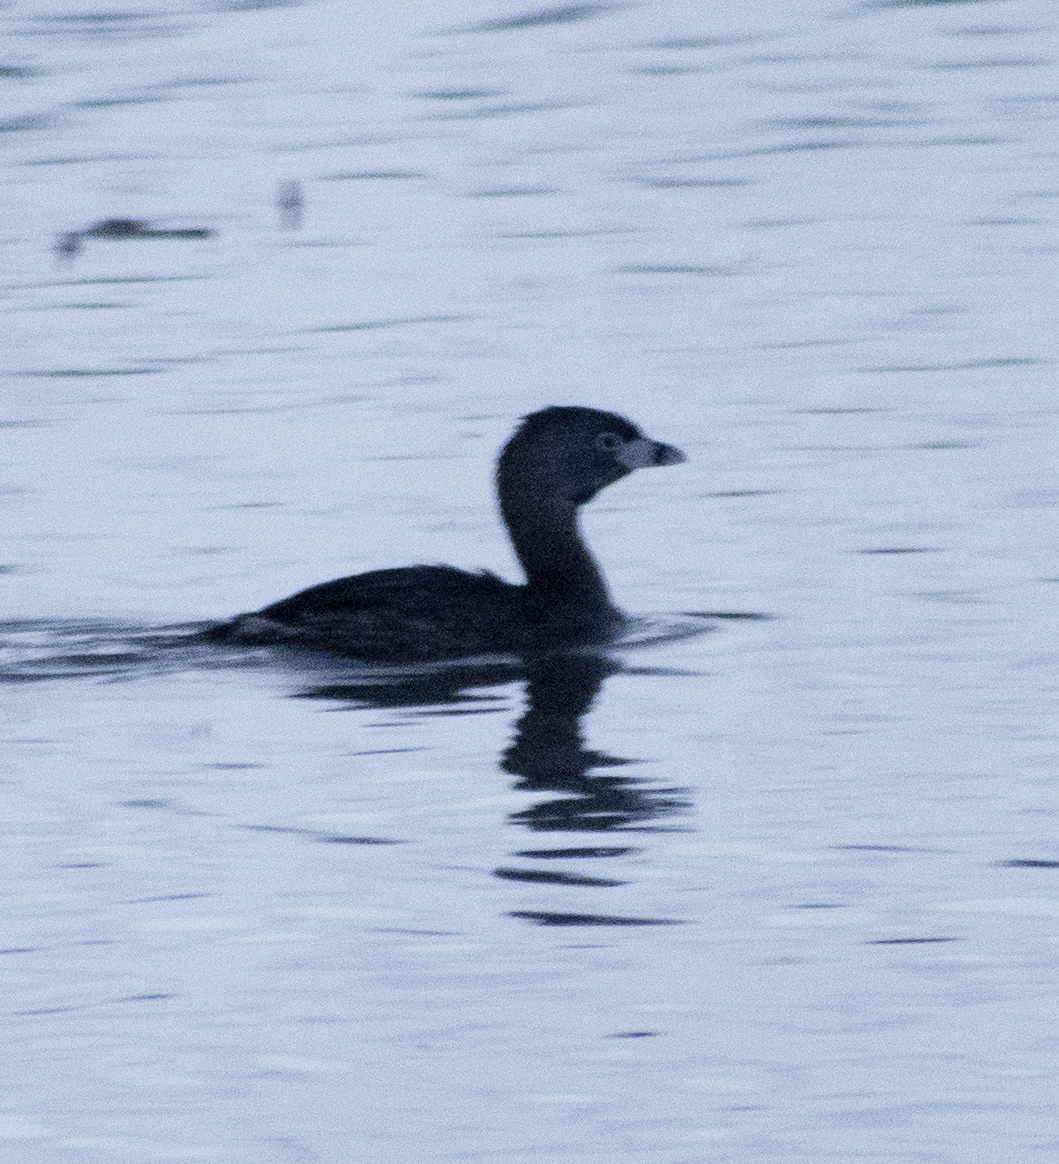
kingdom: Animalia
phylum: Chordata
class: Aves
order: Podicipediformes
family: Podicipedidae
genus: Podilymbus
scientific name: Podilymbus podiceps
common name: Pied-billed grebe
